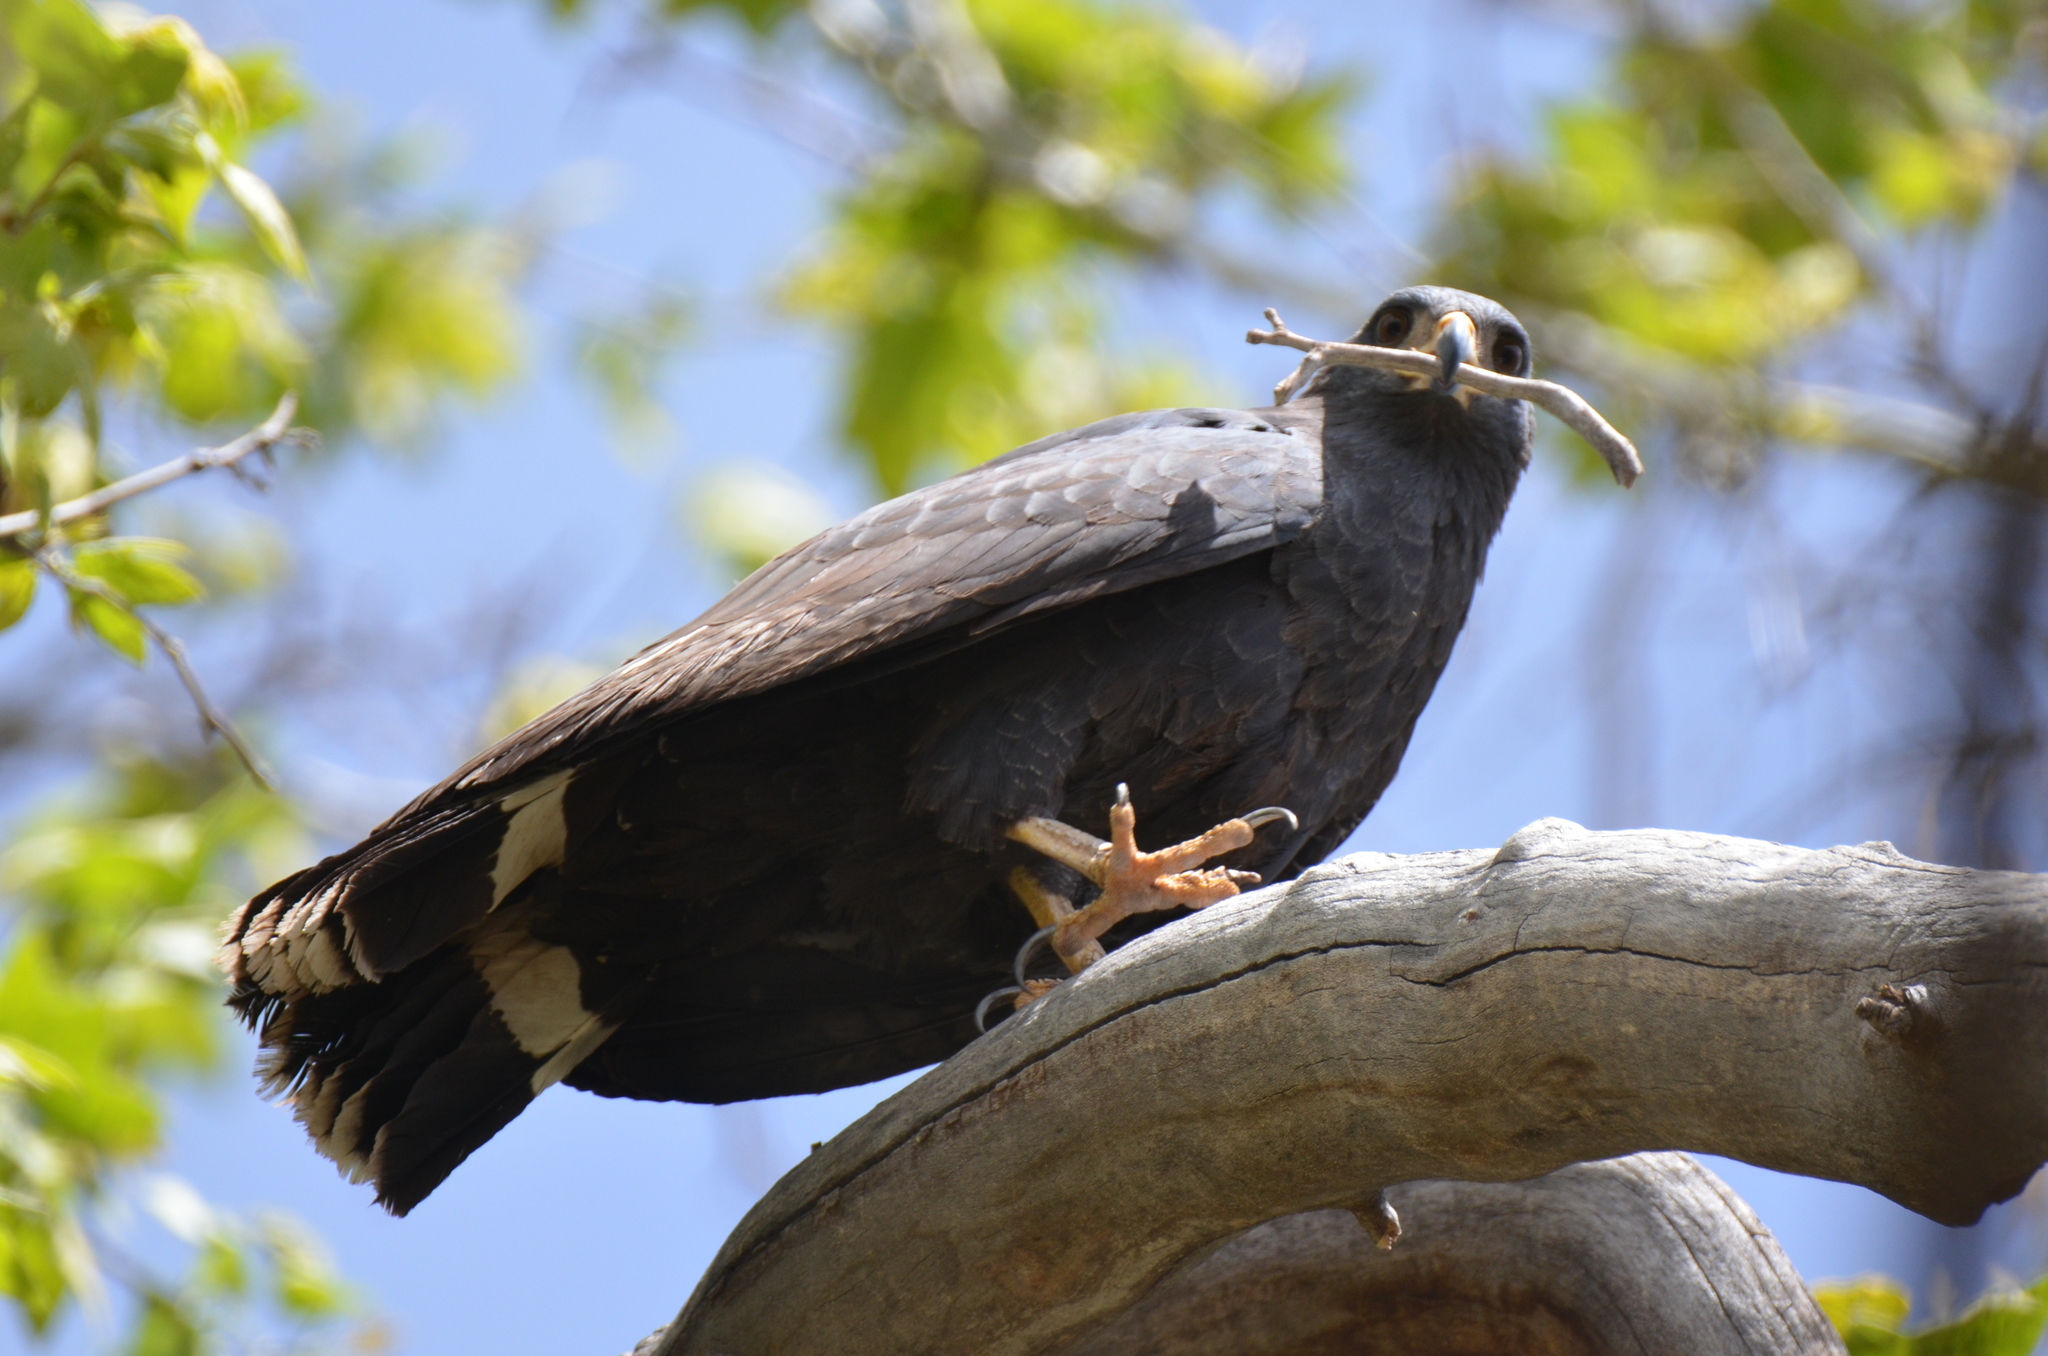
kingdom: Animalia
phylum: Chordata
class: Aves
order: Accipitriformes
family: Accipitridae
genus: Buteogallus
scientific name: Buteogallus anthracinus
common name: Common black hawk
